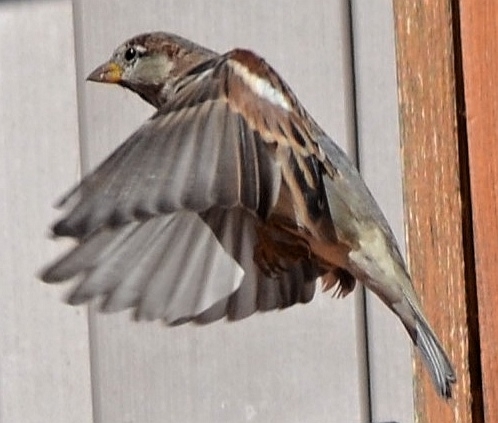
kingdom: Animalia
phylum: Chordata
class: Aves
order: Passeriformes
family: Passeridae
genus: Passer
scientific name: Passer domesticus
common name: House sparrow
